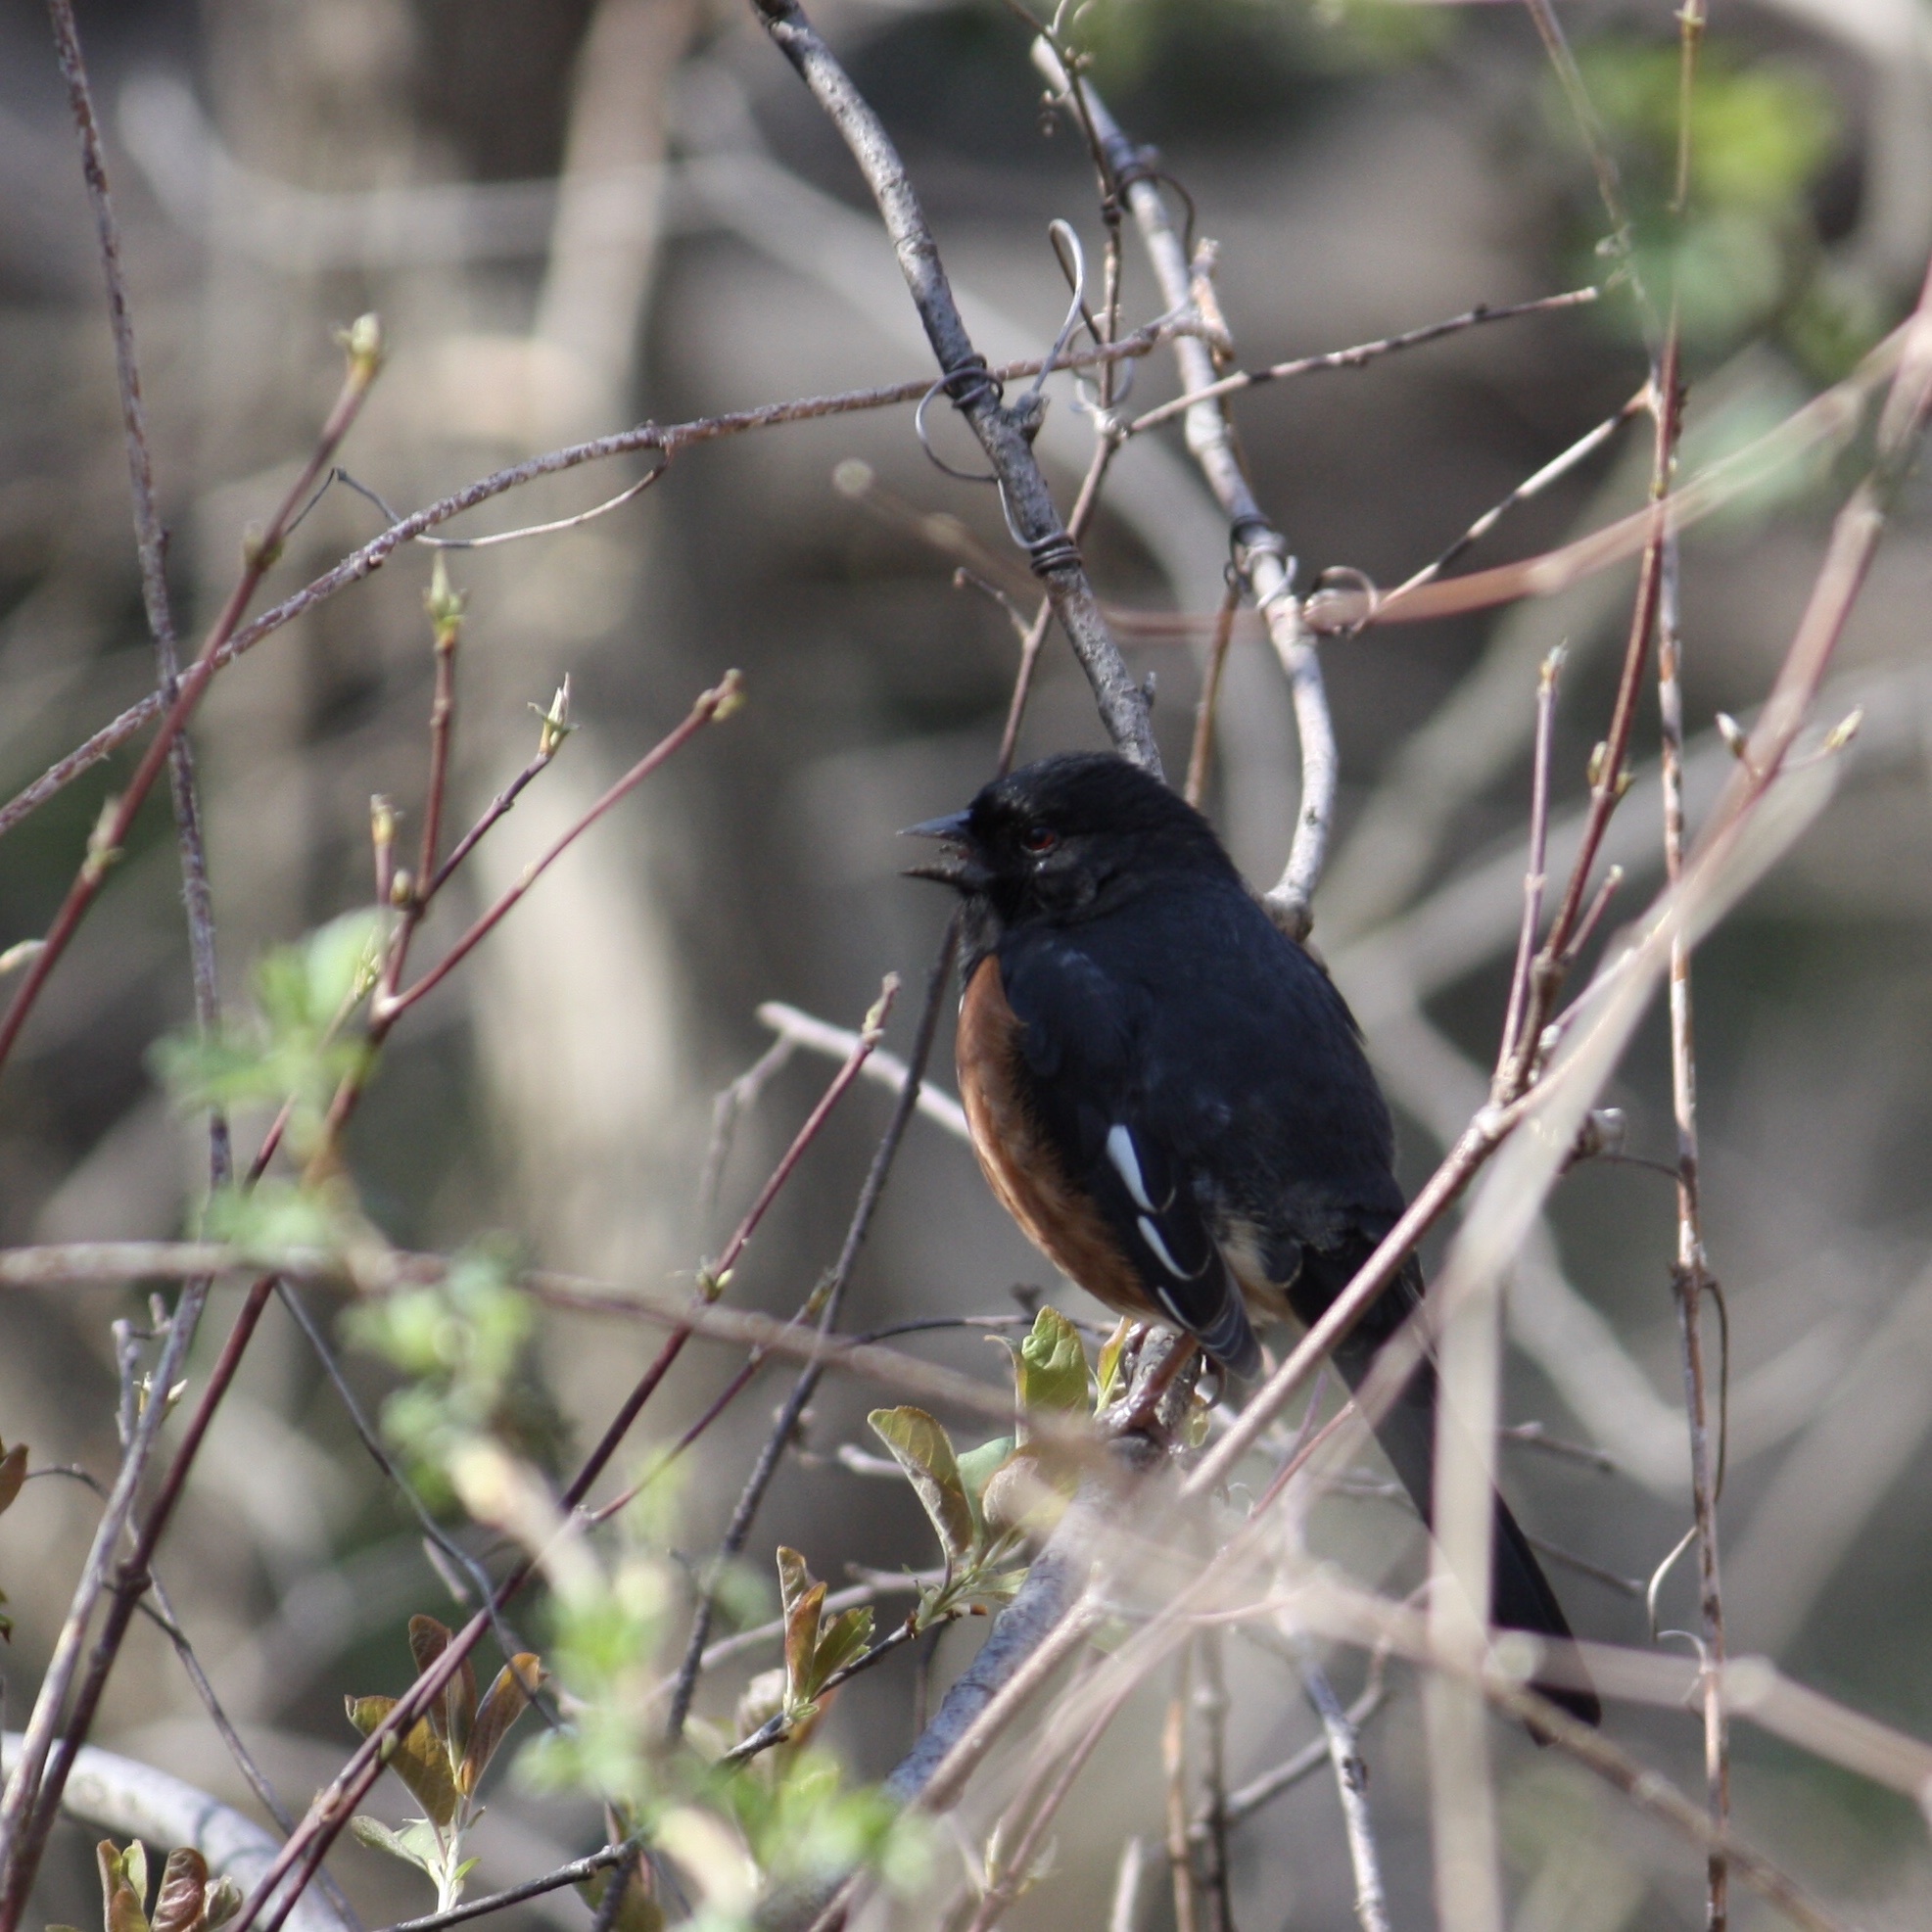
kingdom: Animalia
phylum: Chordata
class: Aves
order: Passeriformes
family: Passerellidae
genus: Pipilo
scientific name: Pipilo erythrophthalmus
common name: Eastern towhee
